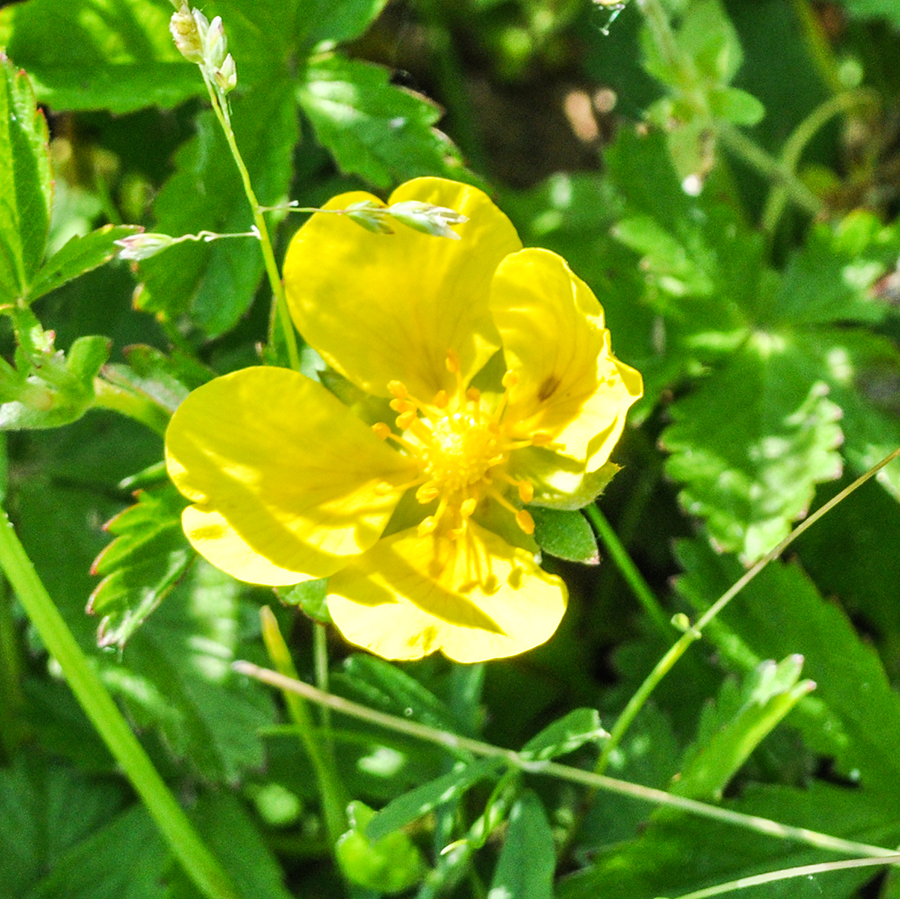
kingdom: Plantae
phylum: Tracheophyta
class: Magnoliopsida
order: Rosales
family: Rosaceae
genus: Potentilla
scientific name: Potentilla reptans
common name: Creeping cinquefoil
